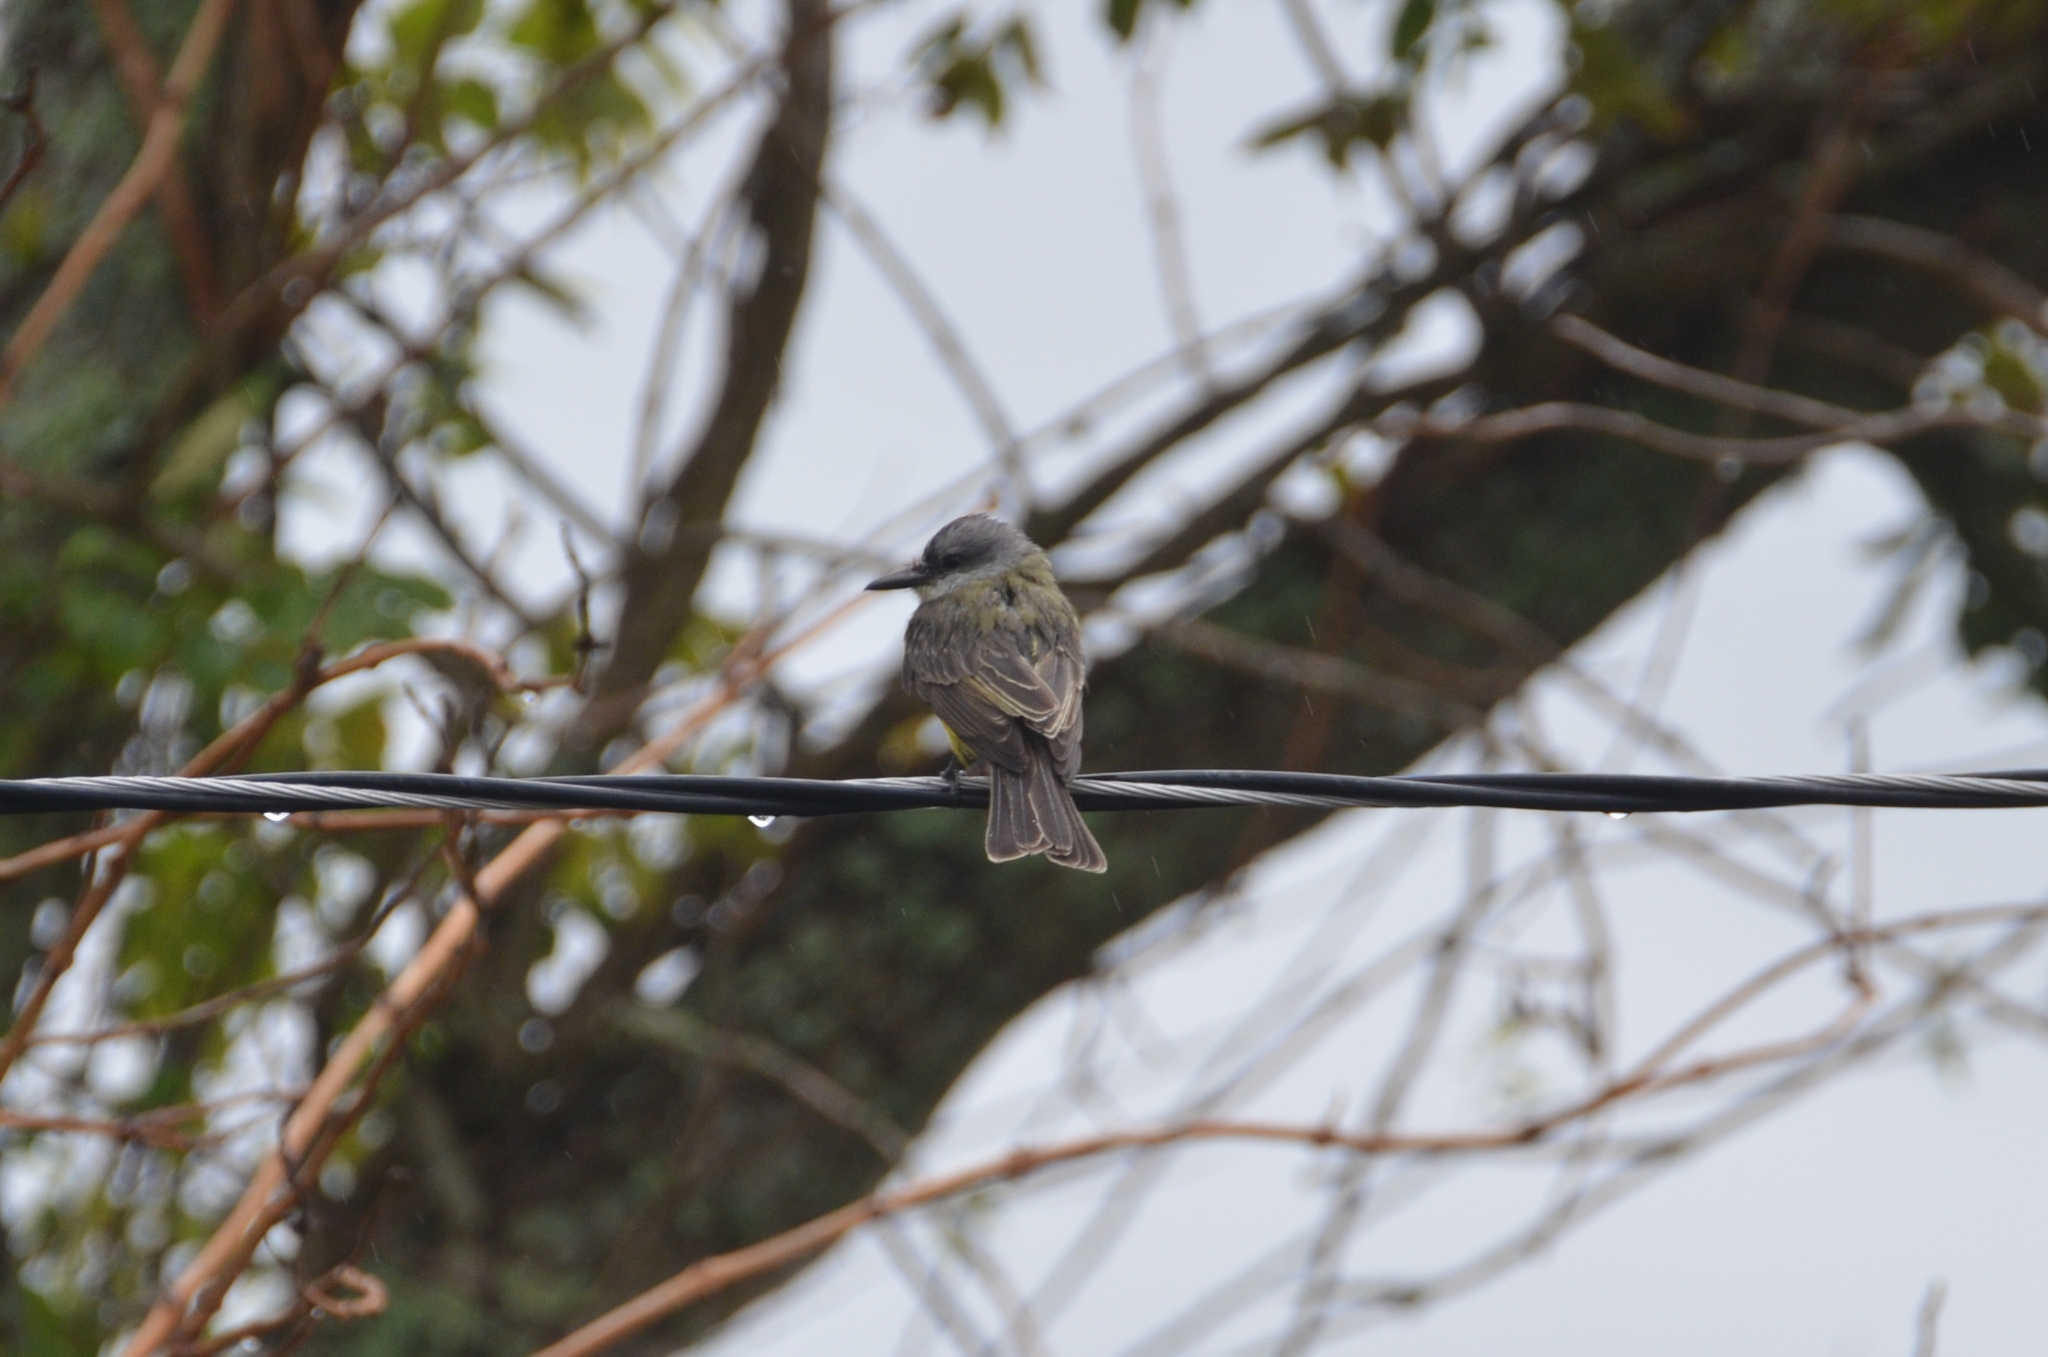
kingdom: Animalia
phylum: Chordata
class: Aves
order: Passeriformes
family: Tyrannidae
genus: Tyrannus
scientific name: Tyrannus melancholicus
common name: Tropical kingbird
